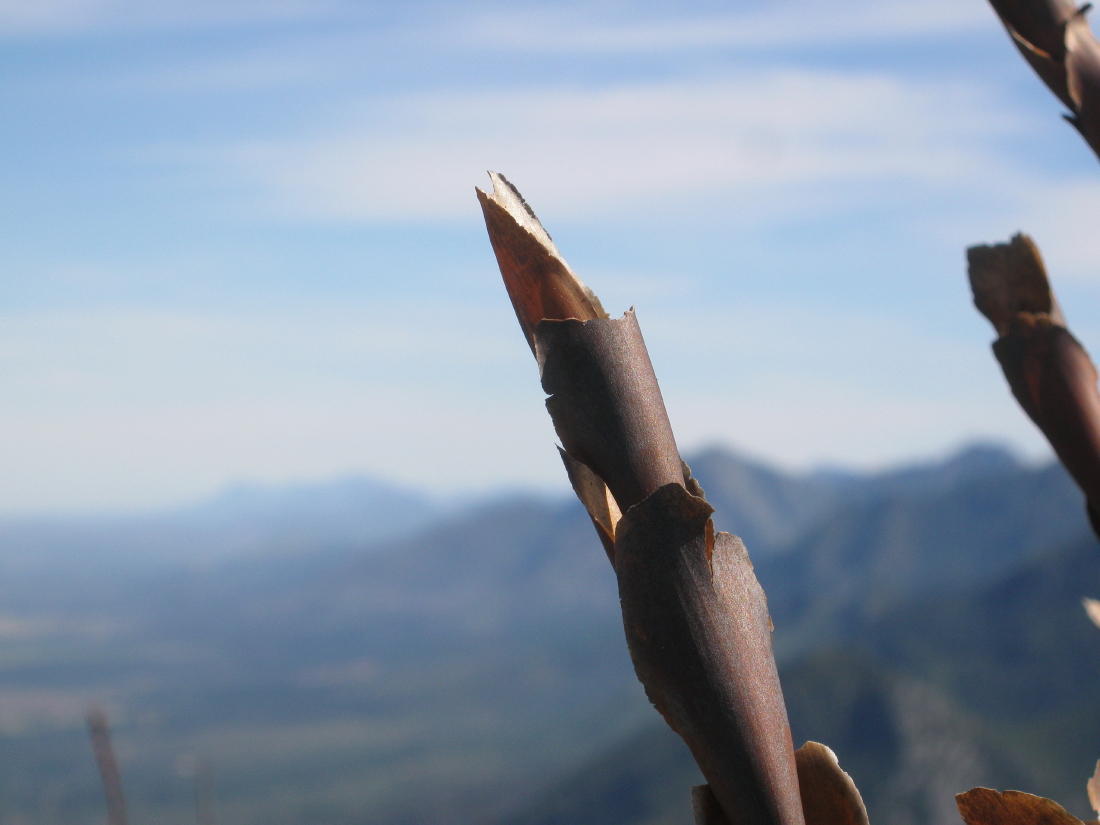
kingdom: Plantae
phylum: Tracheophyta
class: Liliopsida
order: Poales
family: Restionaceae
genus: Elegia
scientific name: Elegia thyrsoidea
